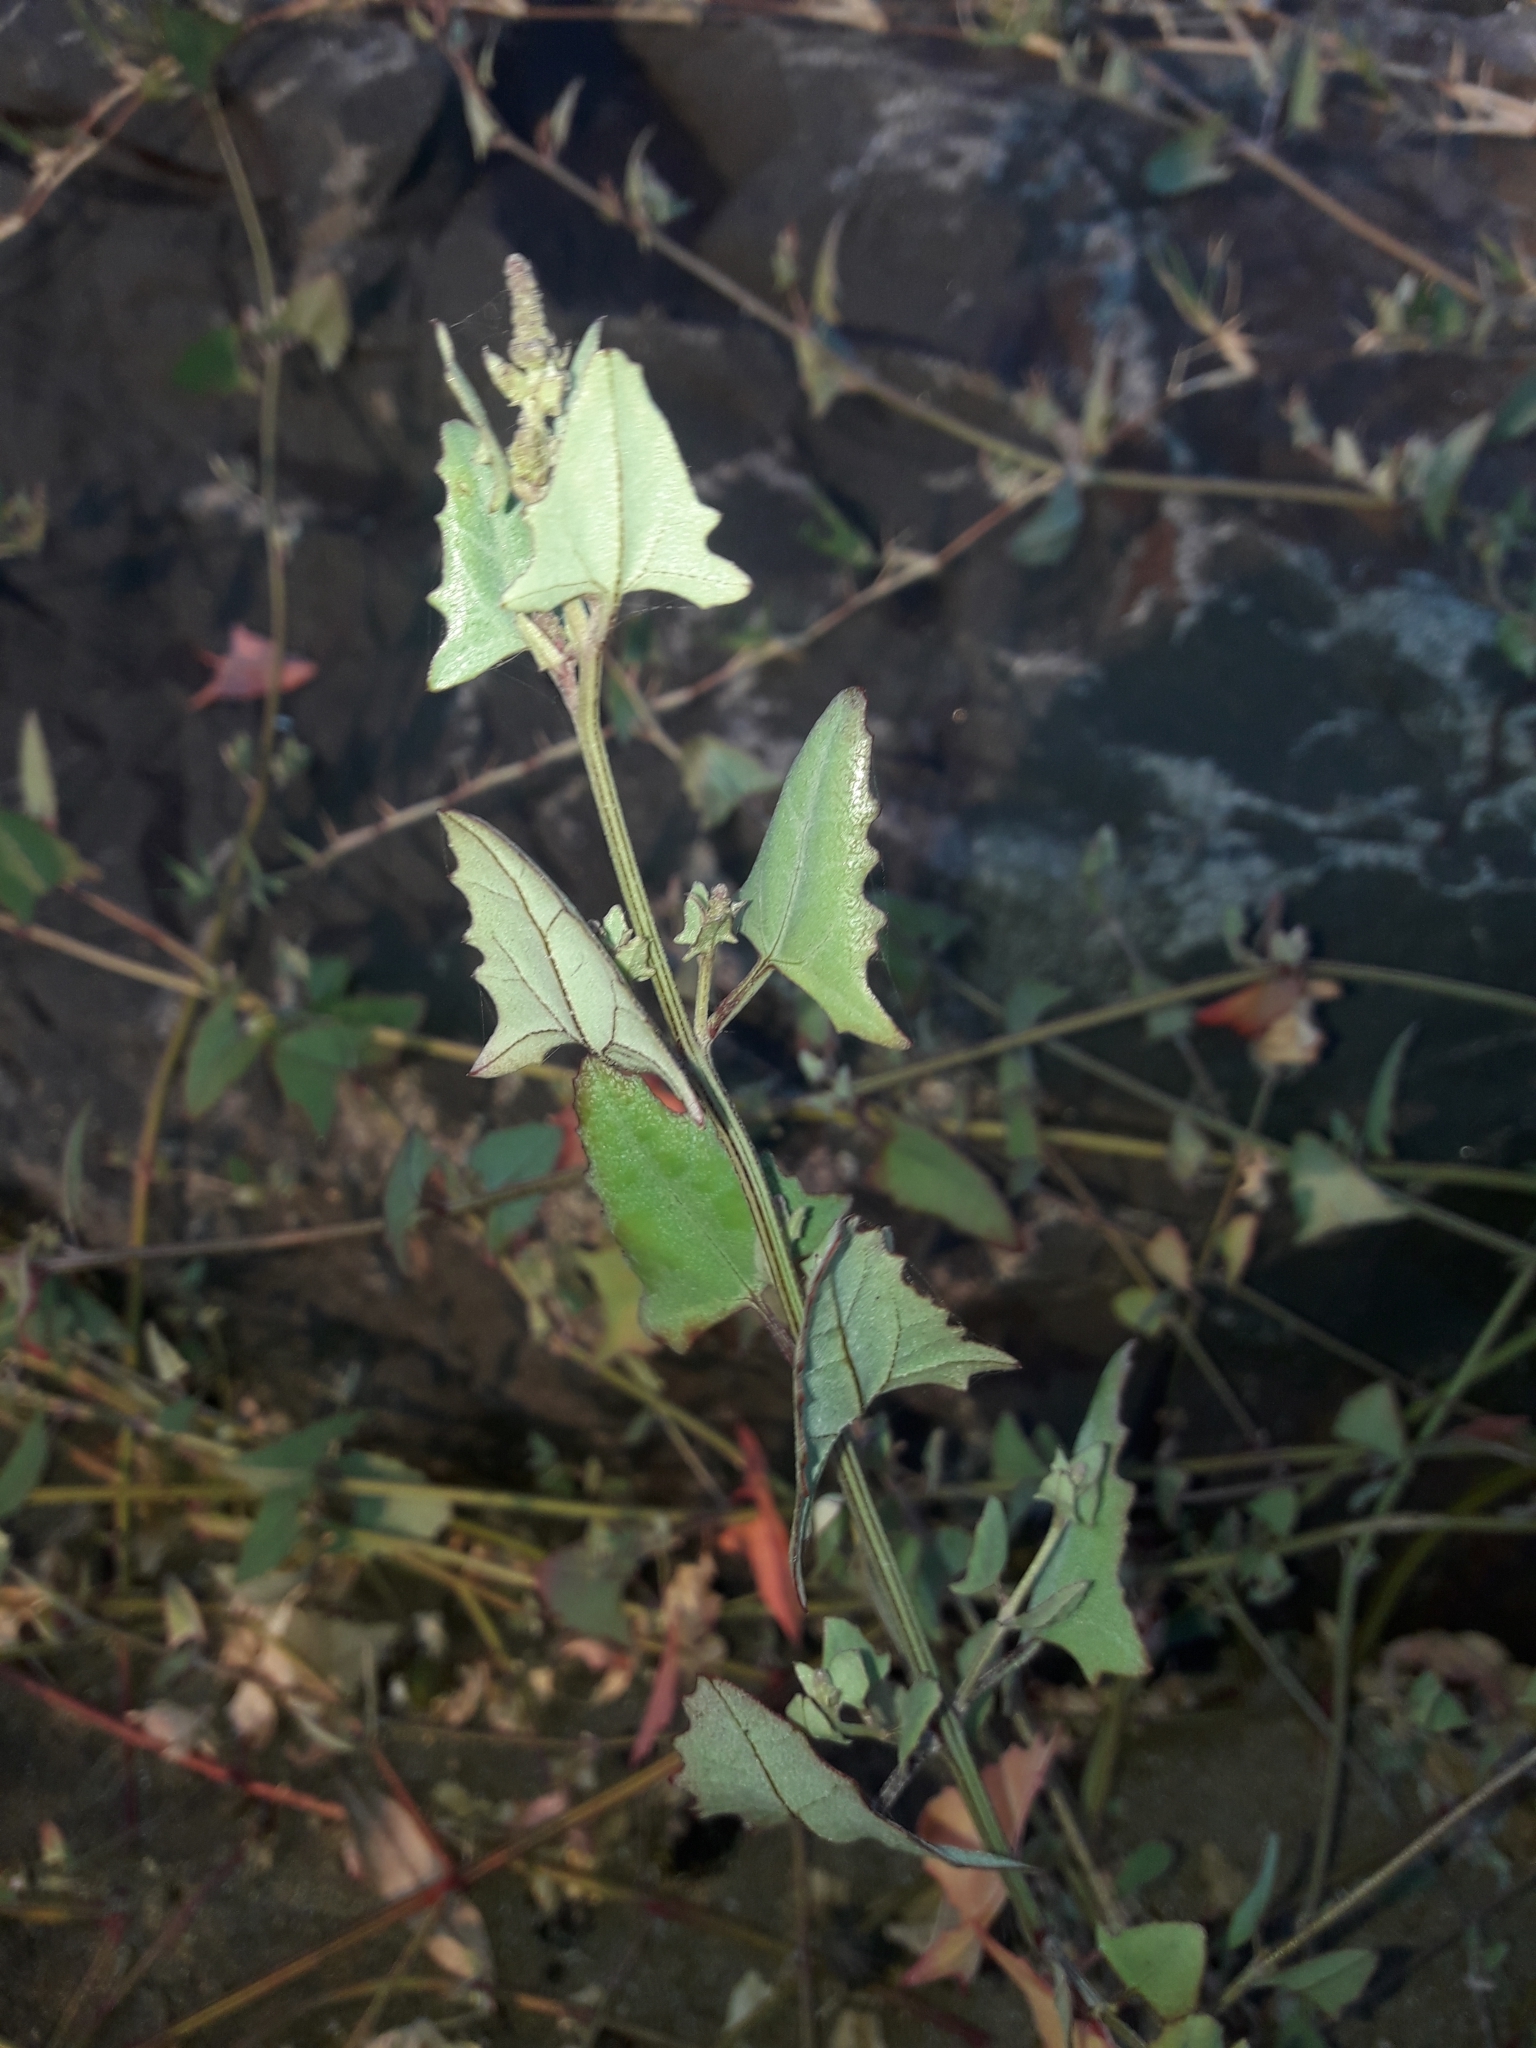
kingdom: Plantae
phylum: Tracheophyta
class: Magnoliopsida
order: Caryophyllales
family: Amaranthaceae
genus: Atriplex
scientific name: Atriplex prostrata
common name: Spear-leaved orache
